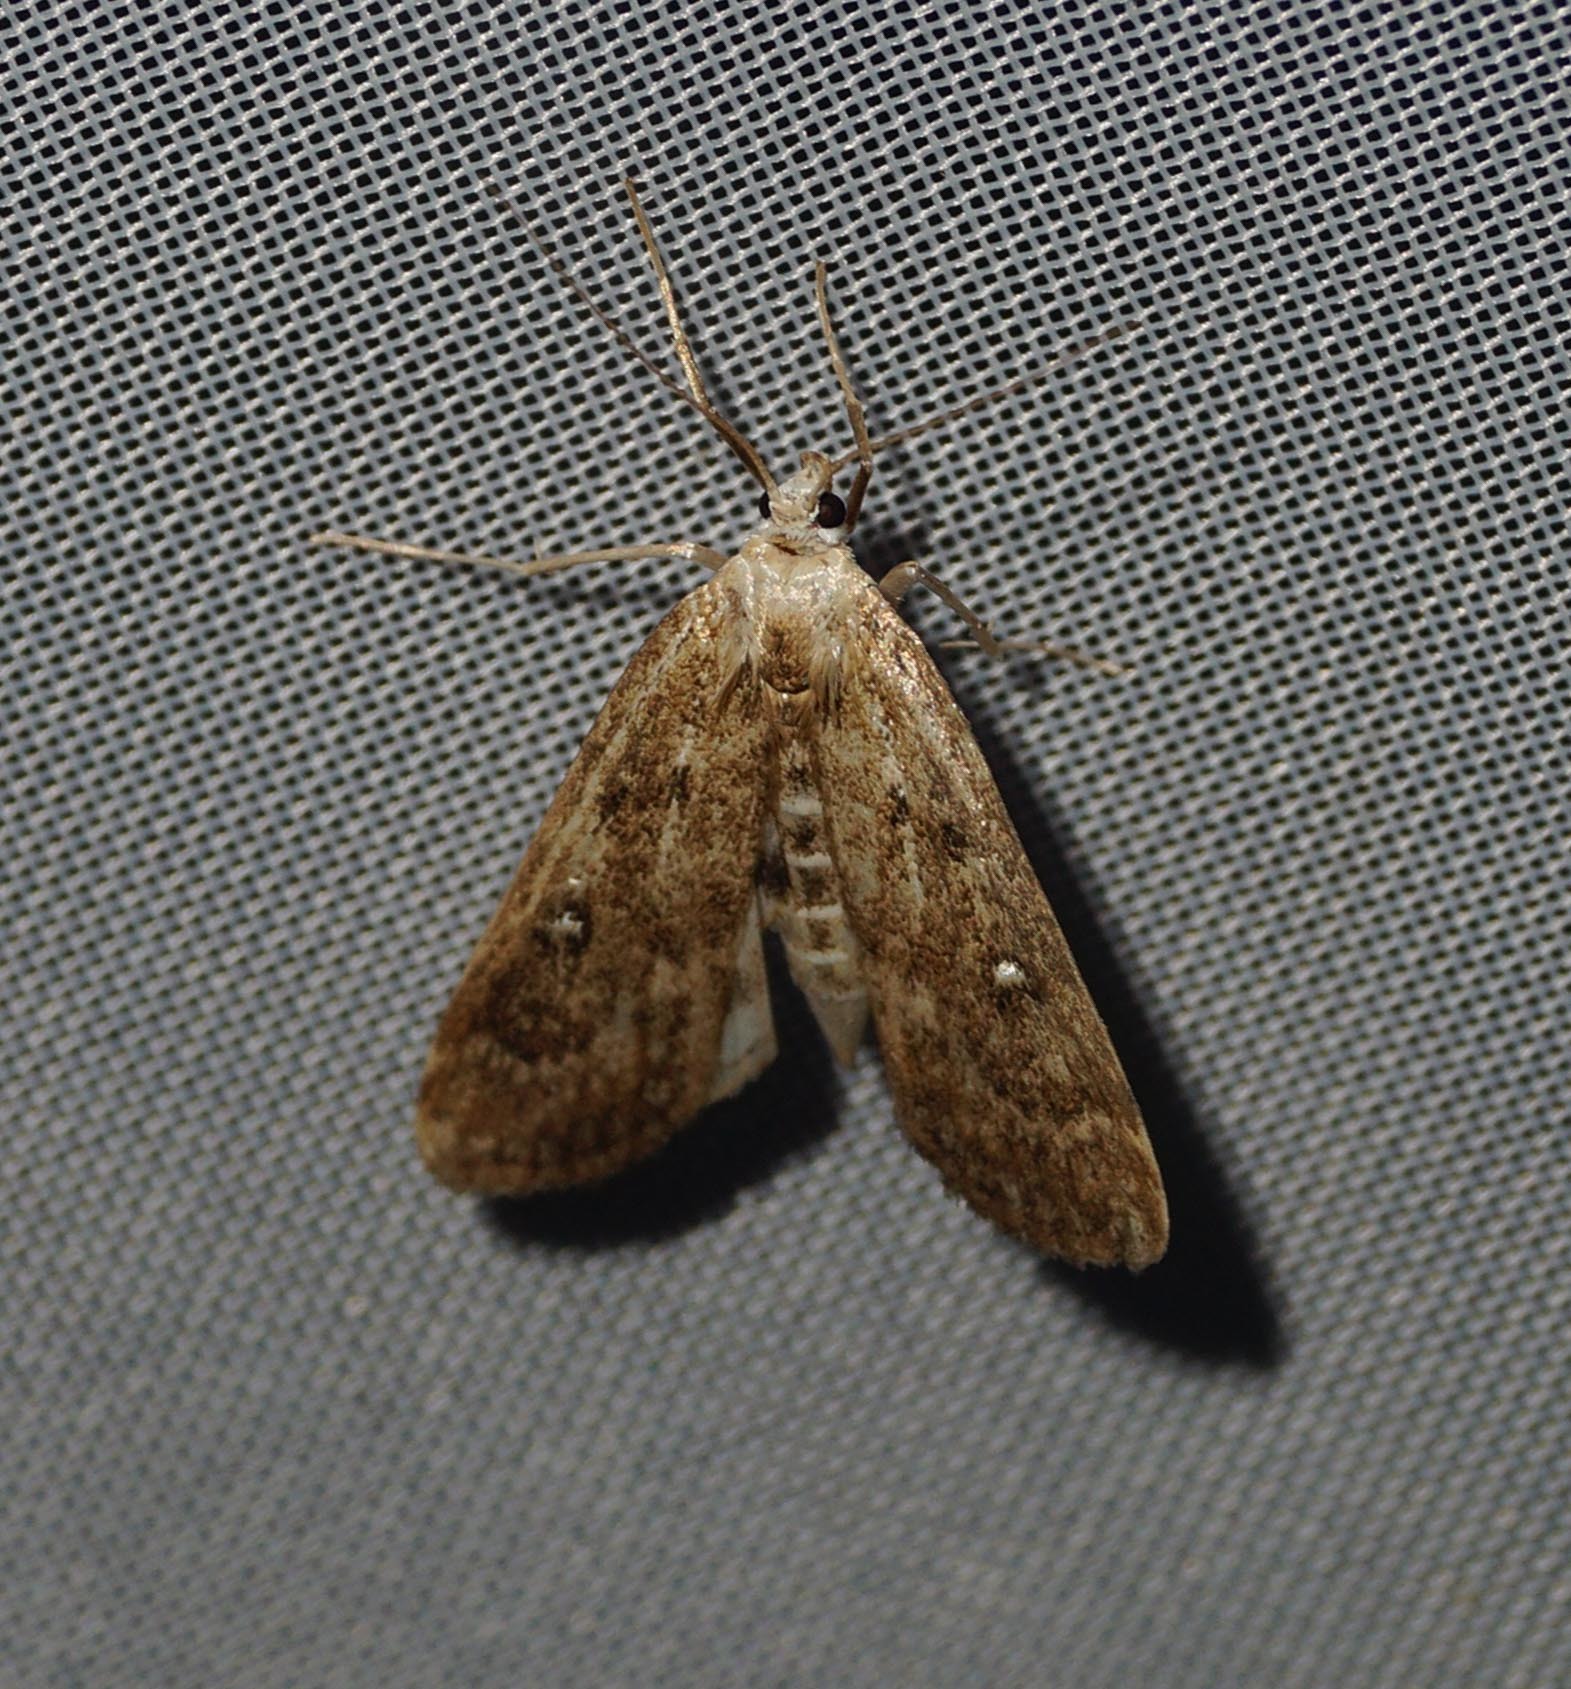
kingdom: Animalia
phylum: Arthropoda
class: Insecta
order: Lepidoptera
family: Crambidae
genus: Parapoynx
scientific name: Parapoynx stratiotata
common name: Ringed china-mark
